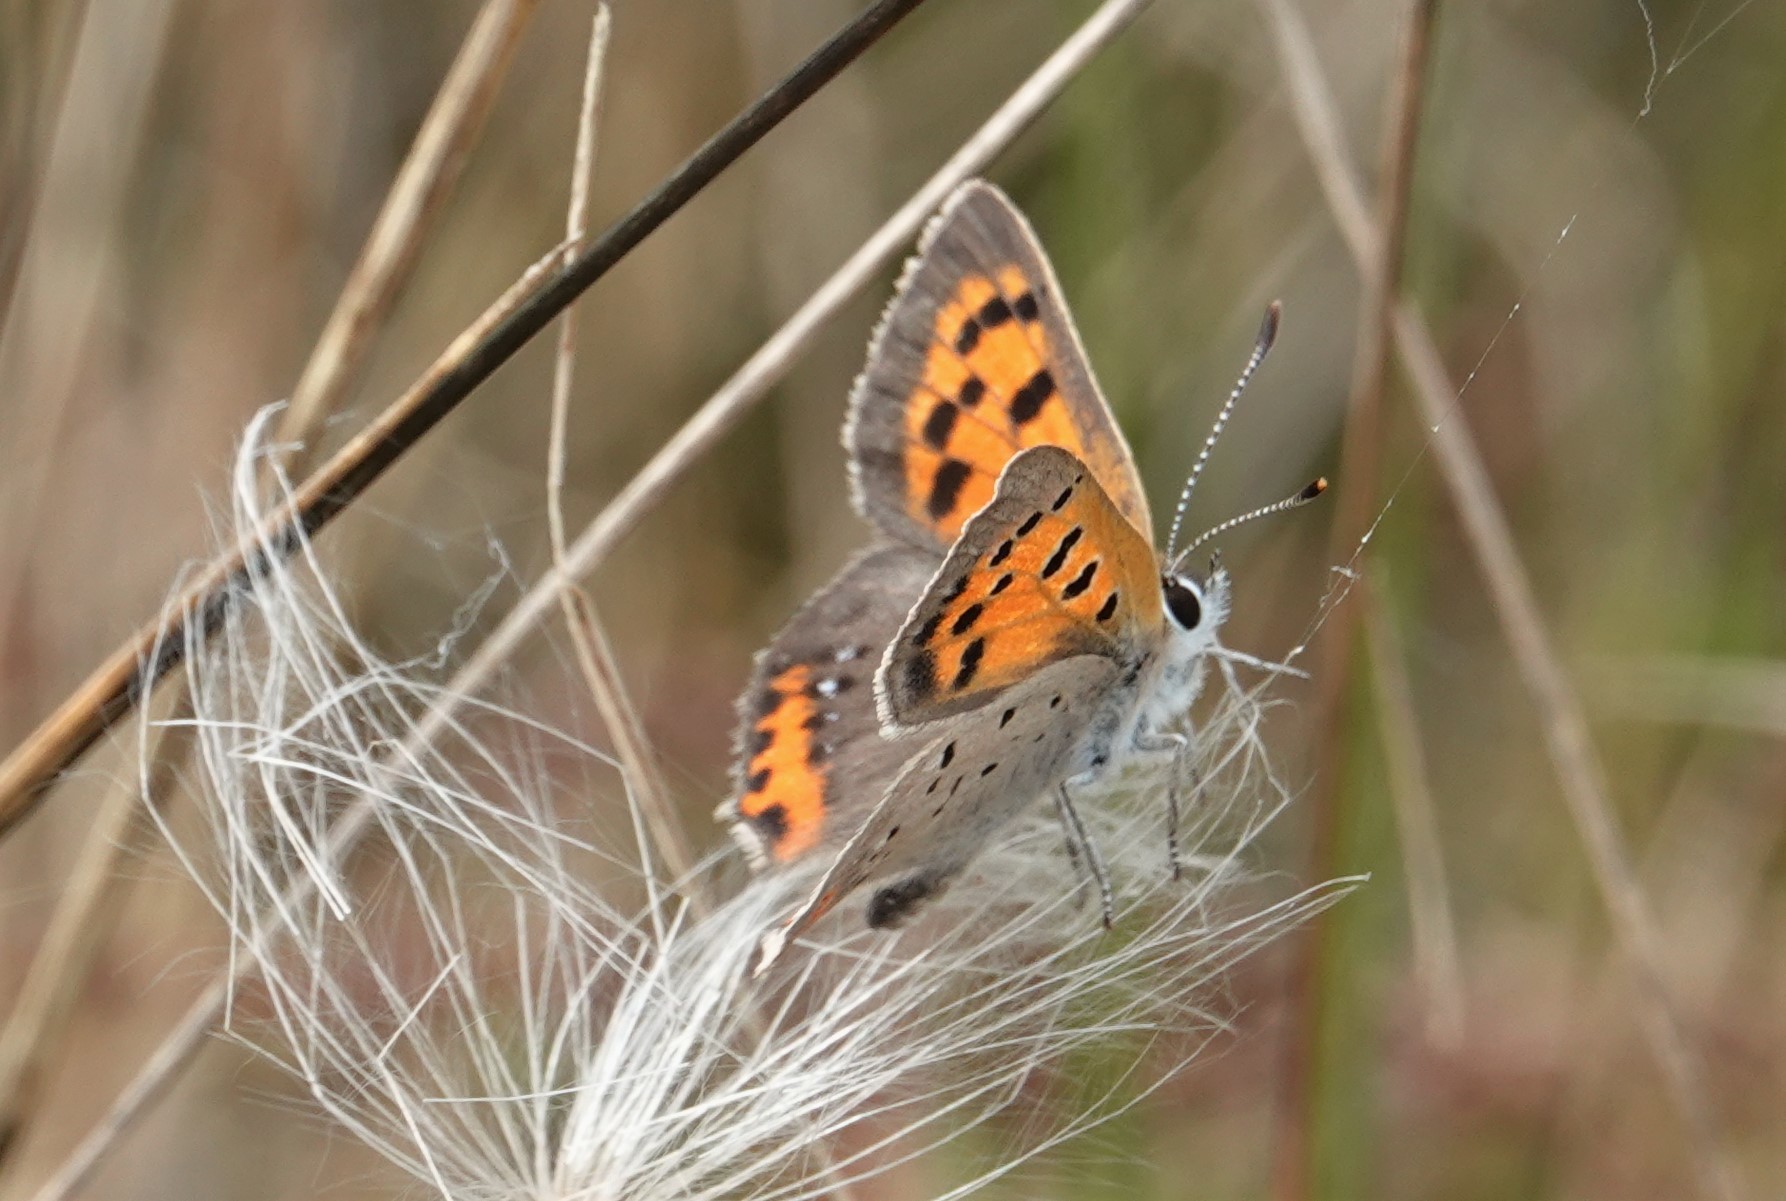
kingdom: Animalia
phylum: Arthropoda
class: Insecta
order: Lepidoptera
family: Lycaenidae
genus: Lycaena
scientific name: Lycaena hypophlaeas
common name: American copper
